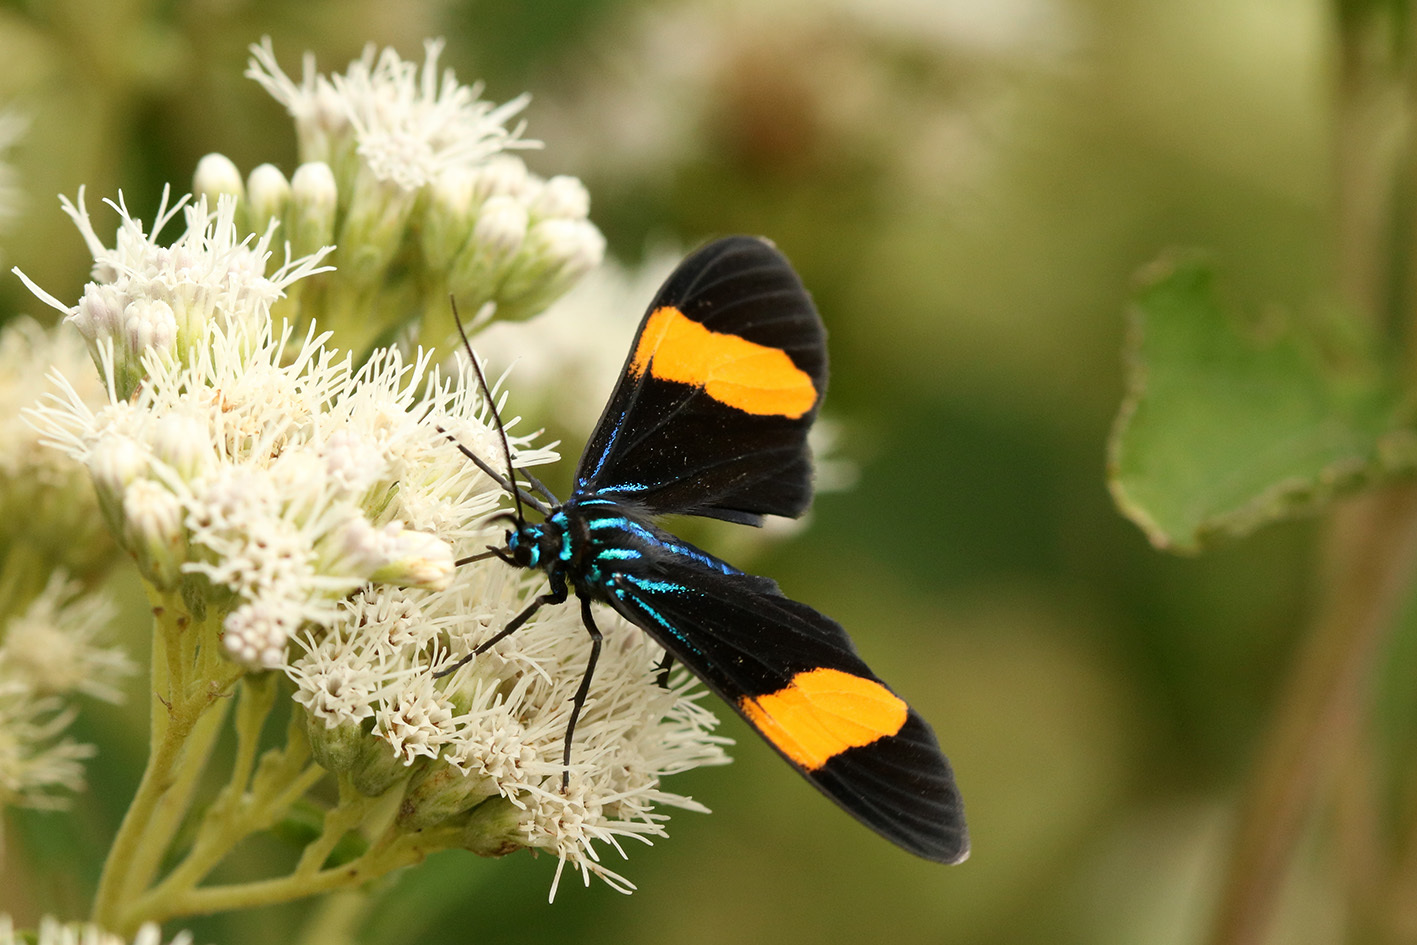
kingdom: Animalia
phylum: Arthropoda
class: Insecta
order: Lepidoptera
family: Erebidae
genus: Cyanopepla
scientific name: Cyanopepla similis
